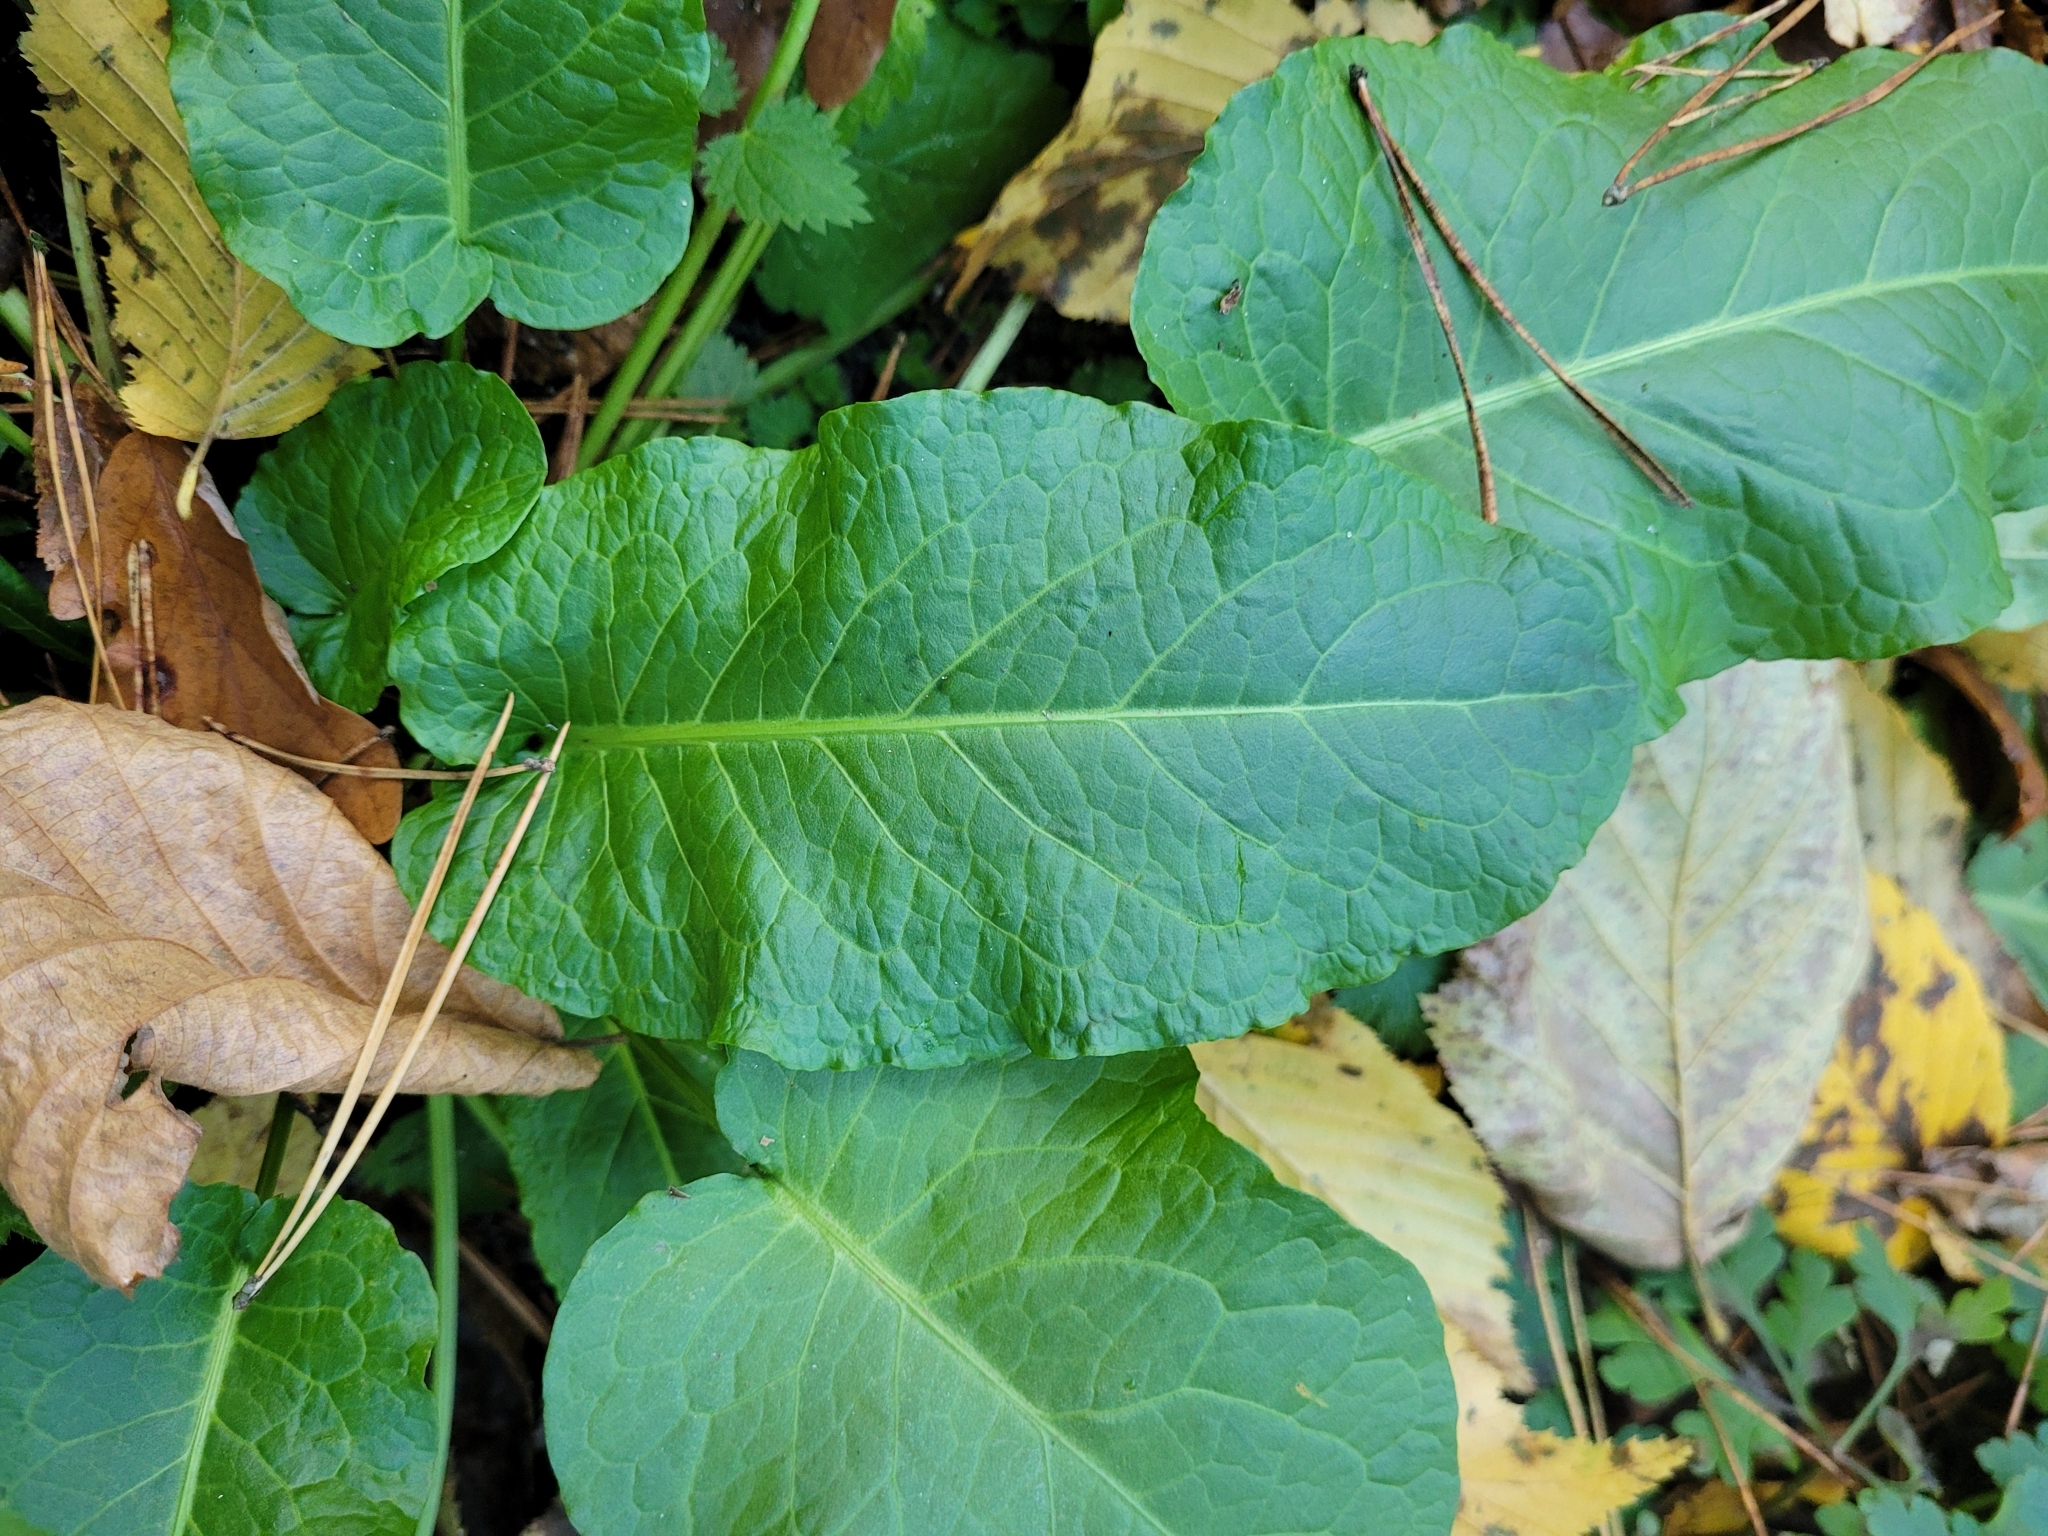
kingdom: Plantae
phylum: Tracheophyta
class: Magnoliopsida
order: Caryophyllales
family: Polygonaceae
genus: Rumex
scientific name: Rumex obtusifolius
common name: Bitter dock
